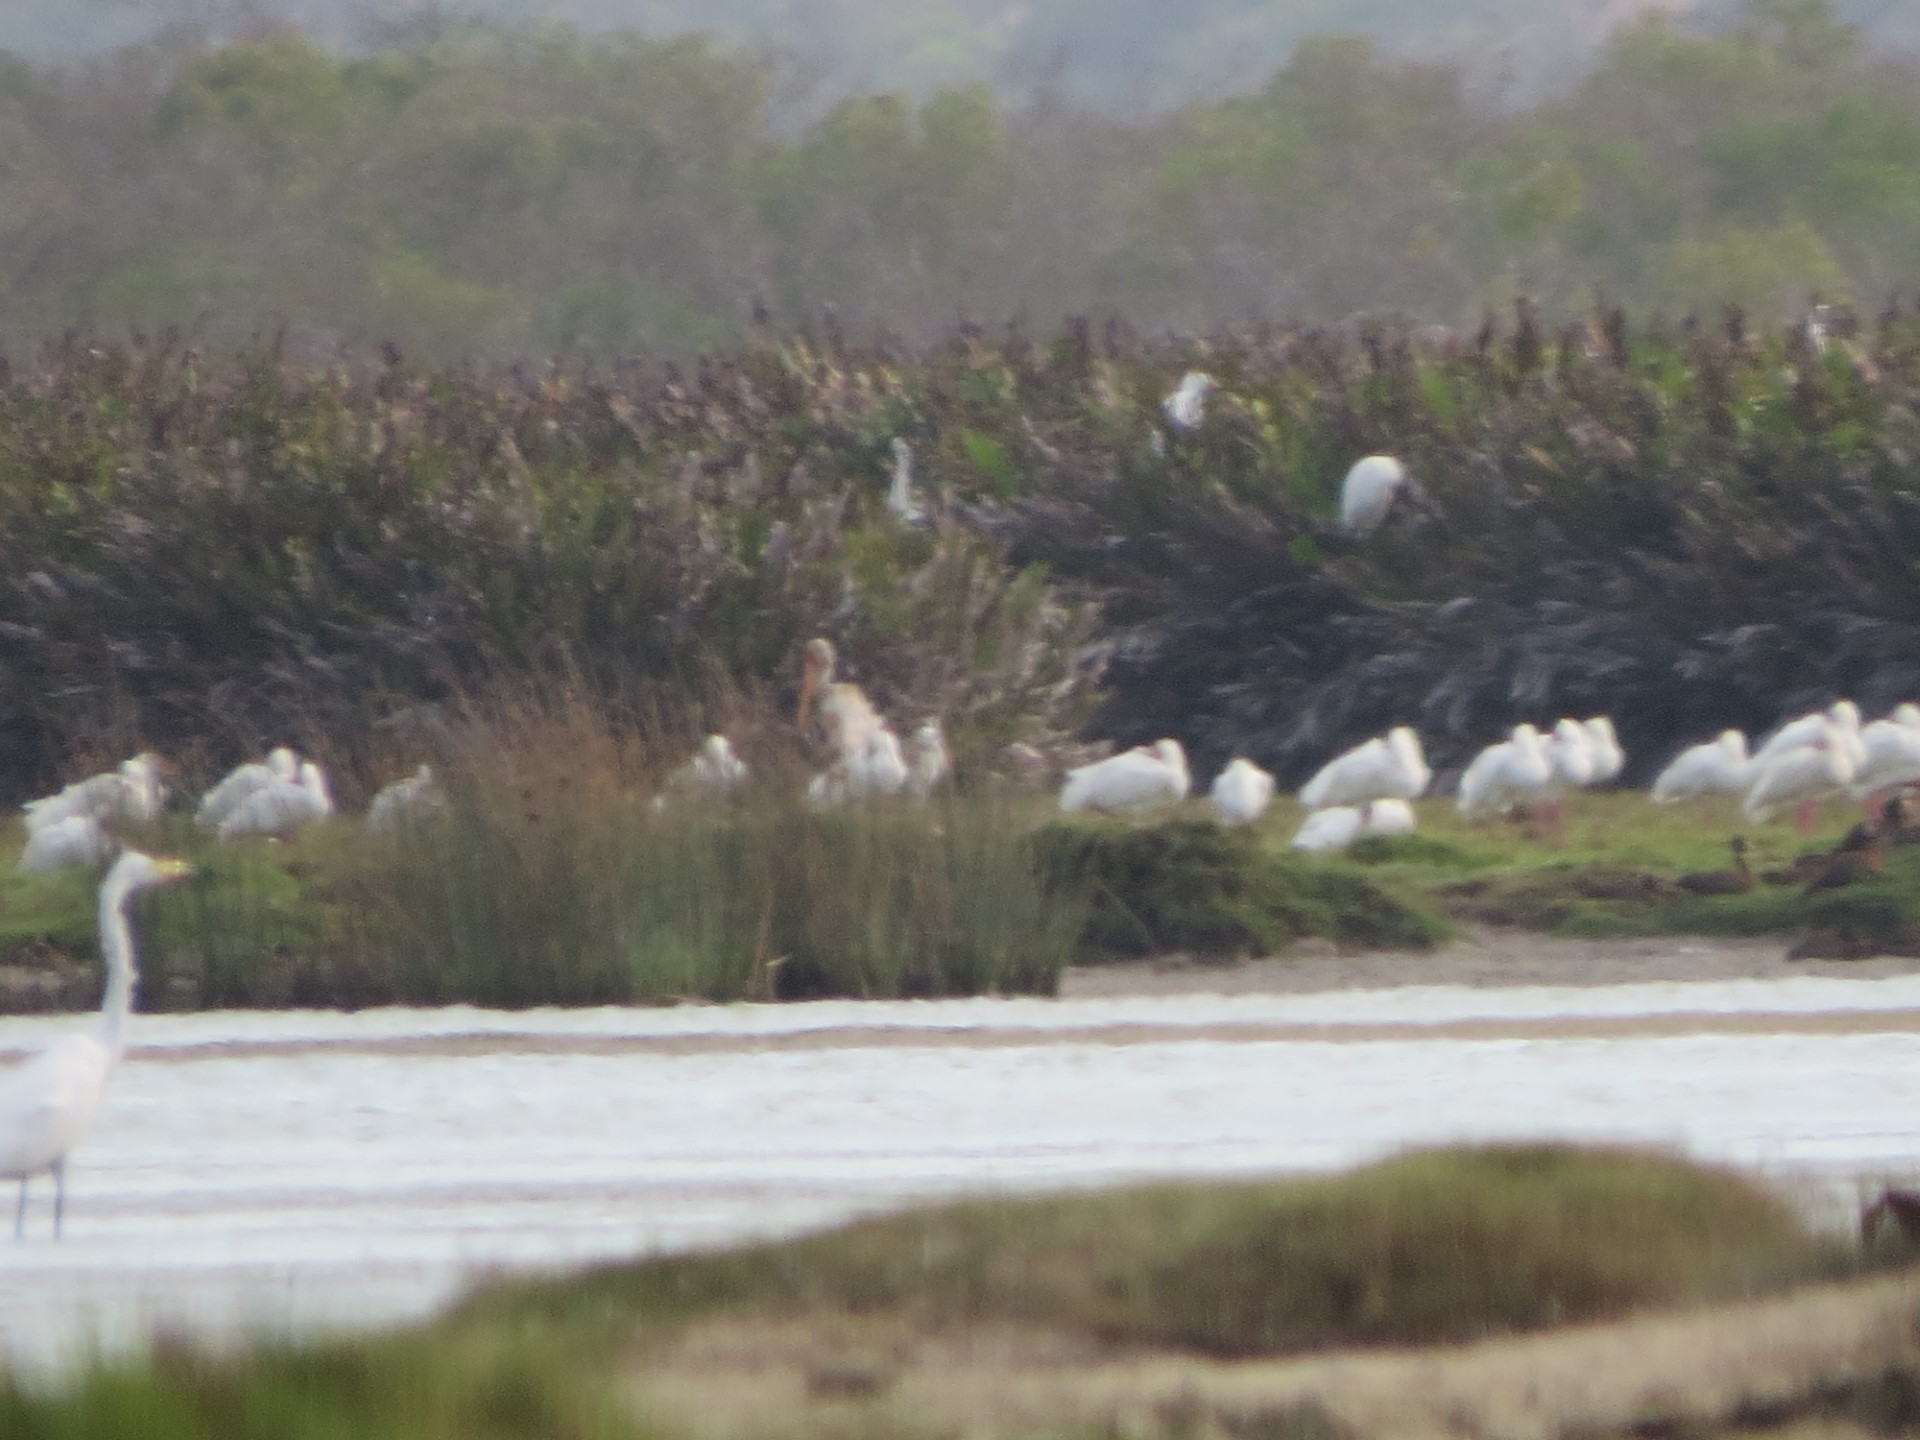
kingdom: Animalia
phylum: Chordata
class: Aves
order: Ciconiiformes
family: Ciconiidae
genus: Mycteria
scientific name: Mycteria ibis
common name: Yellow-billed stork
